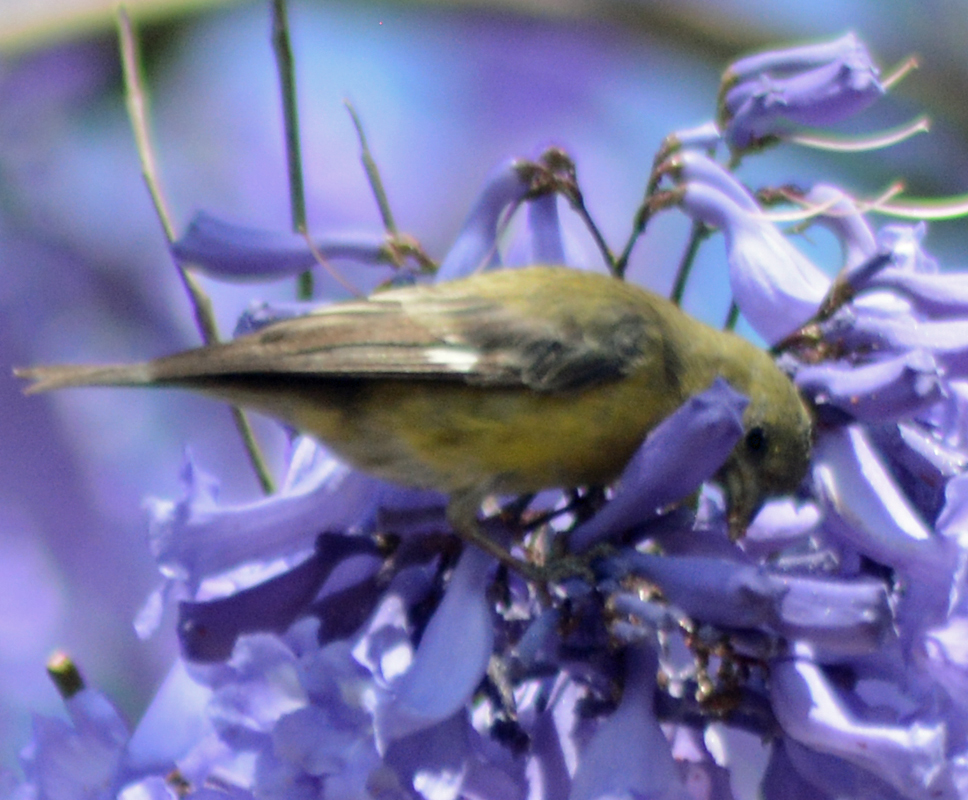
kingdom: Animalia
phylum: Chordata
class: Aves
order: Passeriformes
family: Fringillidae
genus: Spinus
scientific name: Spinus psaltria
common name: Lesser goldfinch
